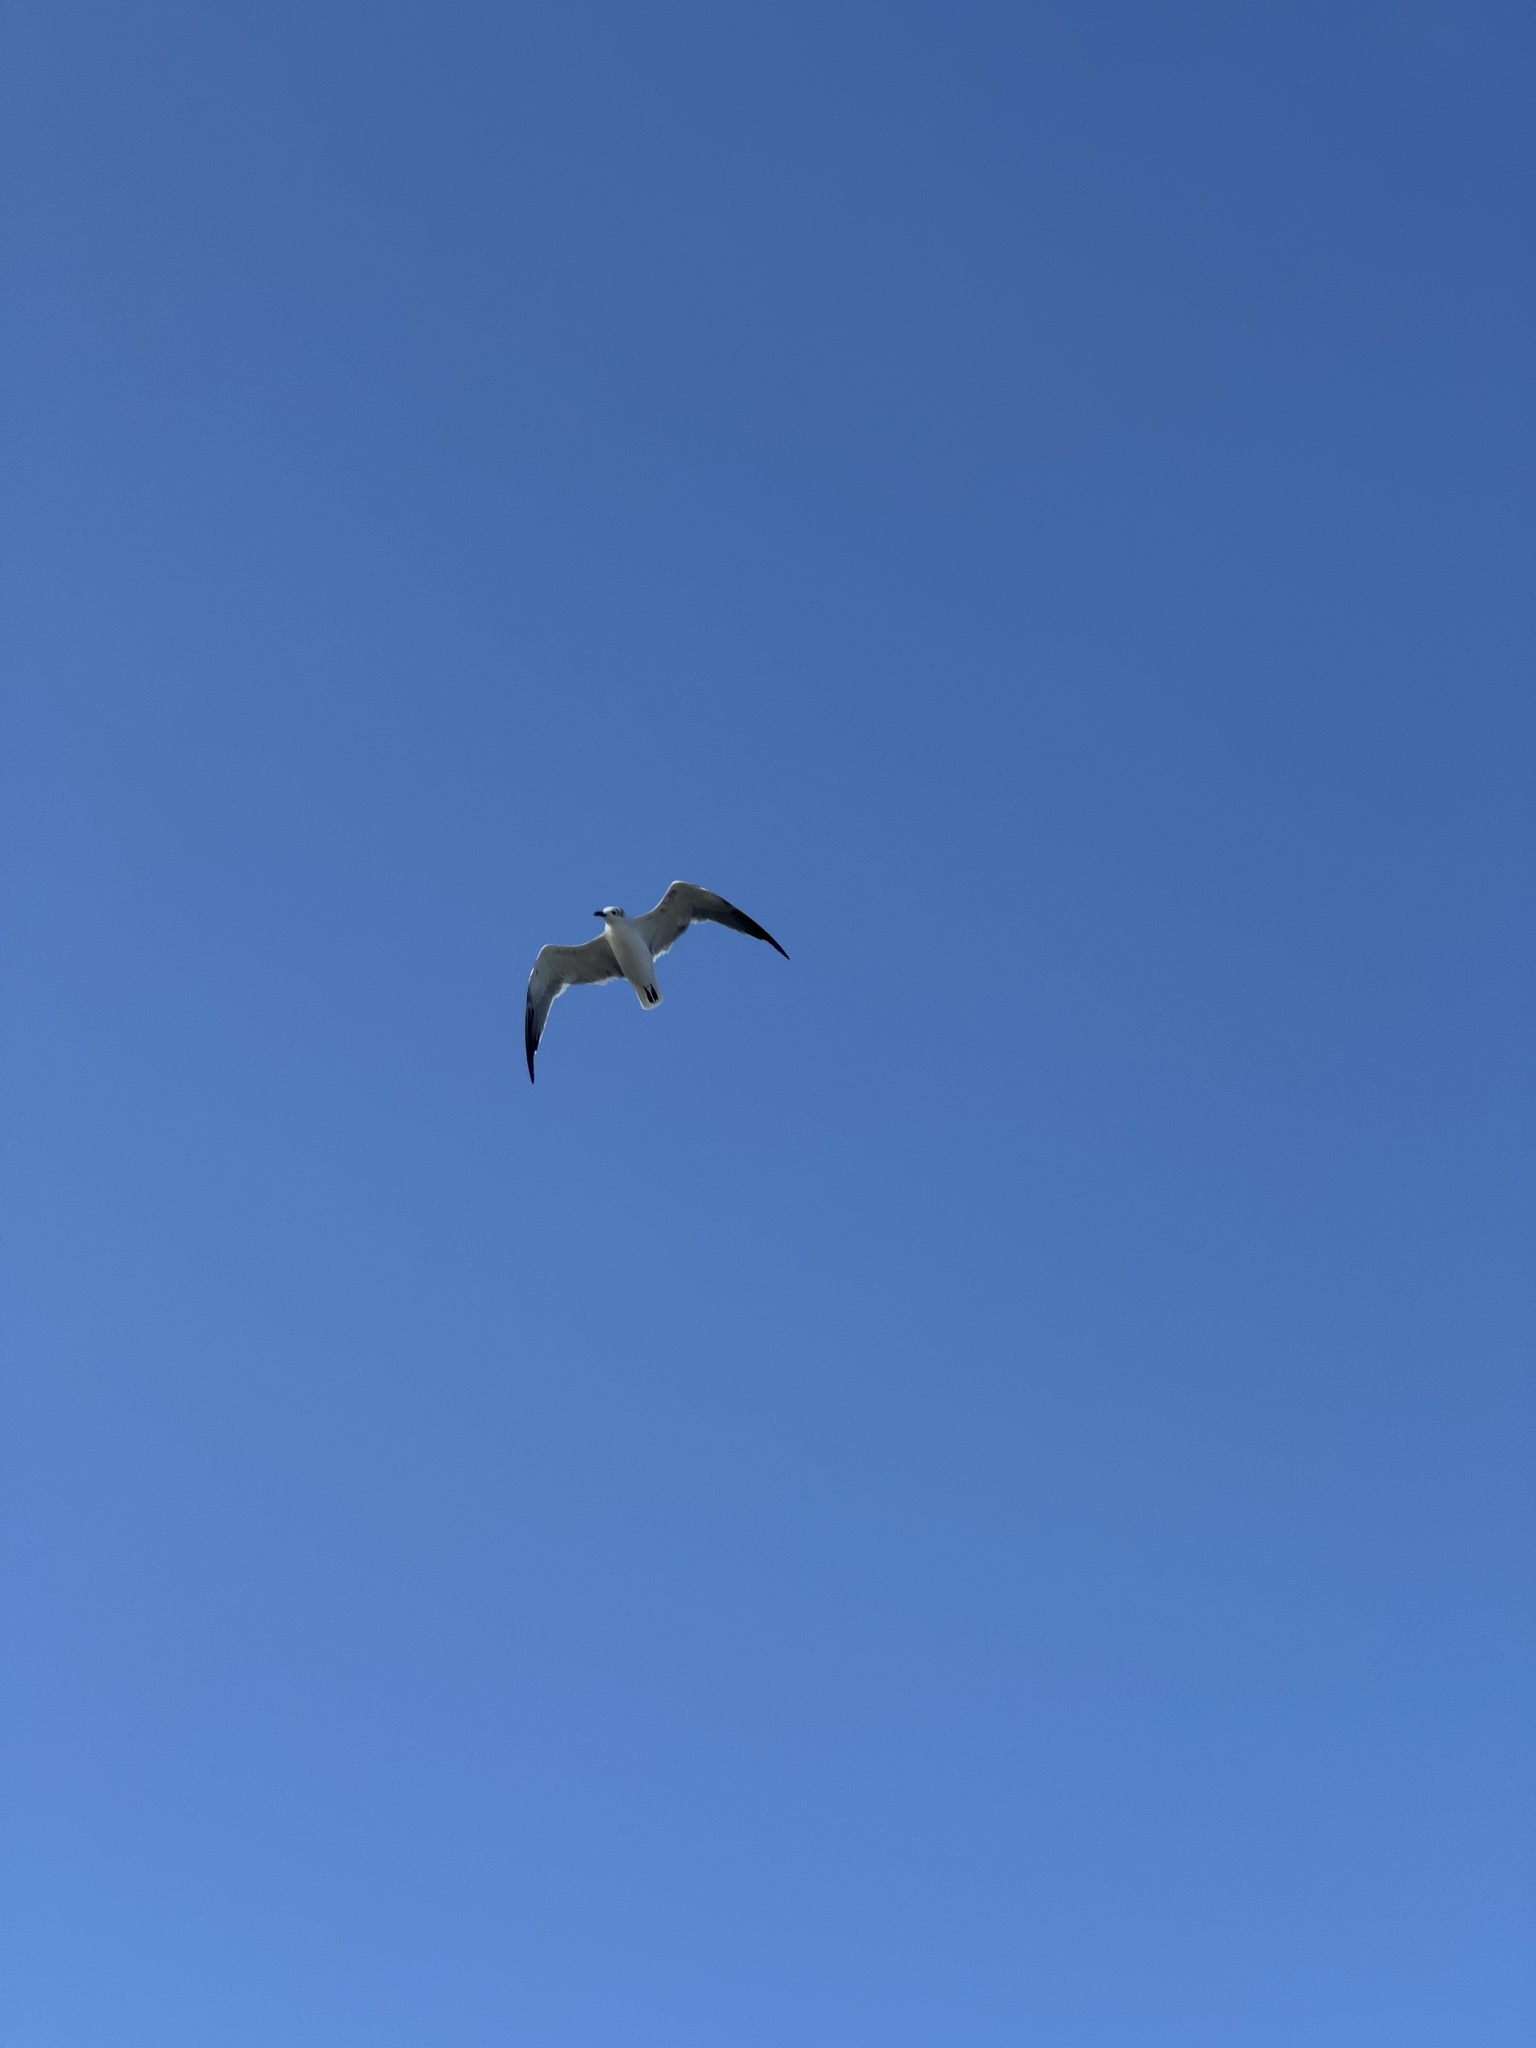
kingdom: Animalia
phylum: Chordata
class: Aves
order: Charadriiformes
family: Laridae
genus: Leucophaeus
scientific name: Leucophaeus atricilla
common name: Laughing gull
